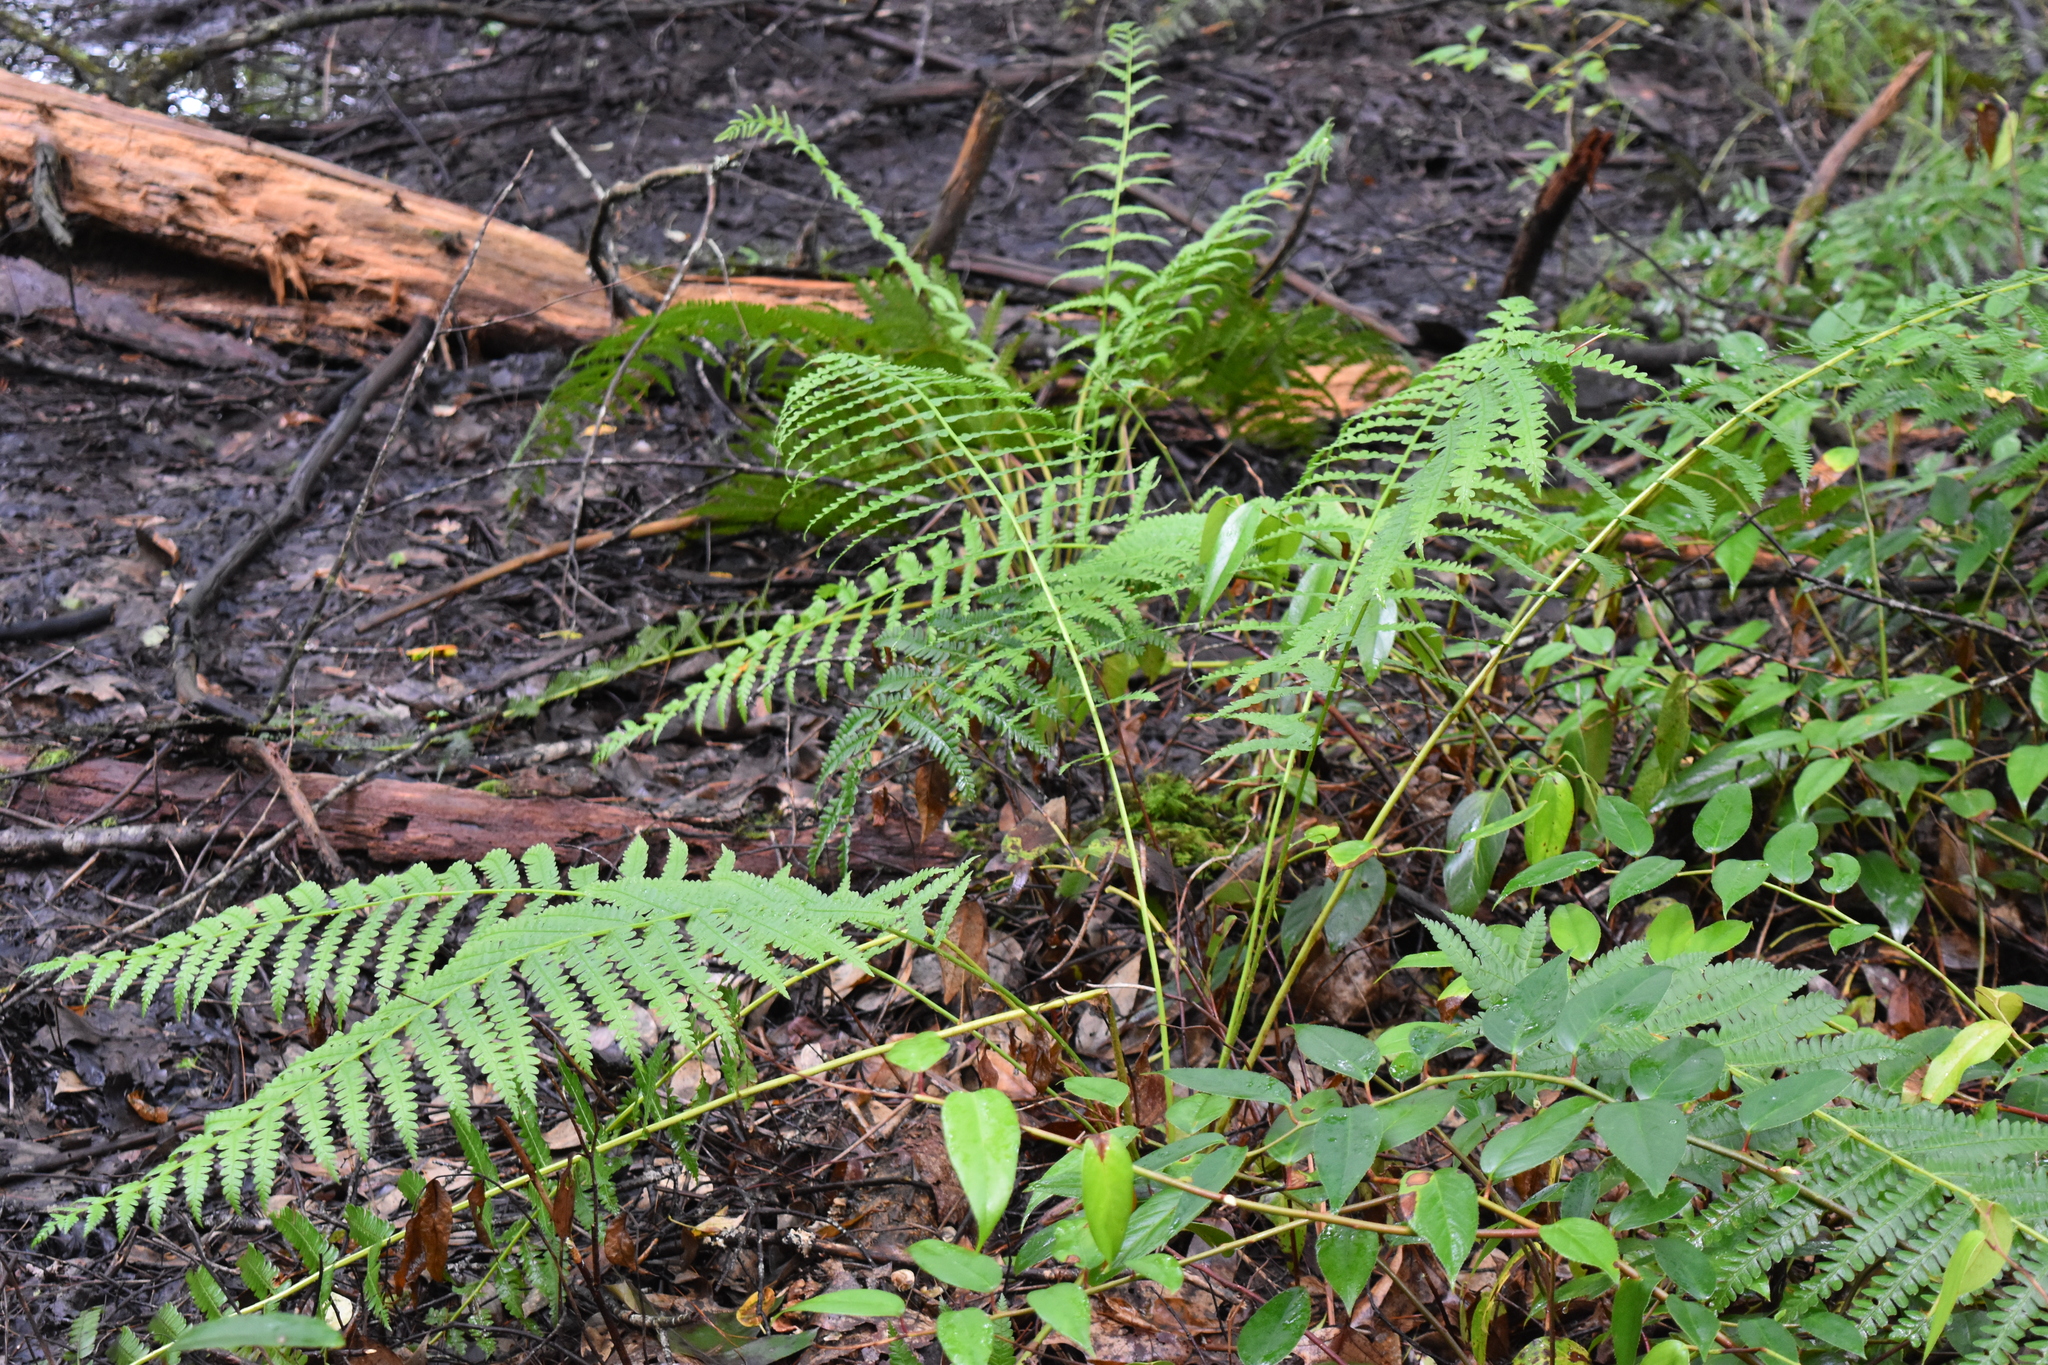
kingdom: Plantae
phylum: Tracheophyta
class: Polypodiopsida
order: Osmundales
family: Osmundaceae
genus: Osmundastrum
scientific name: Osmundastrum cinnamomeum
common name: Cinnamon fern
